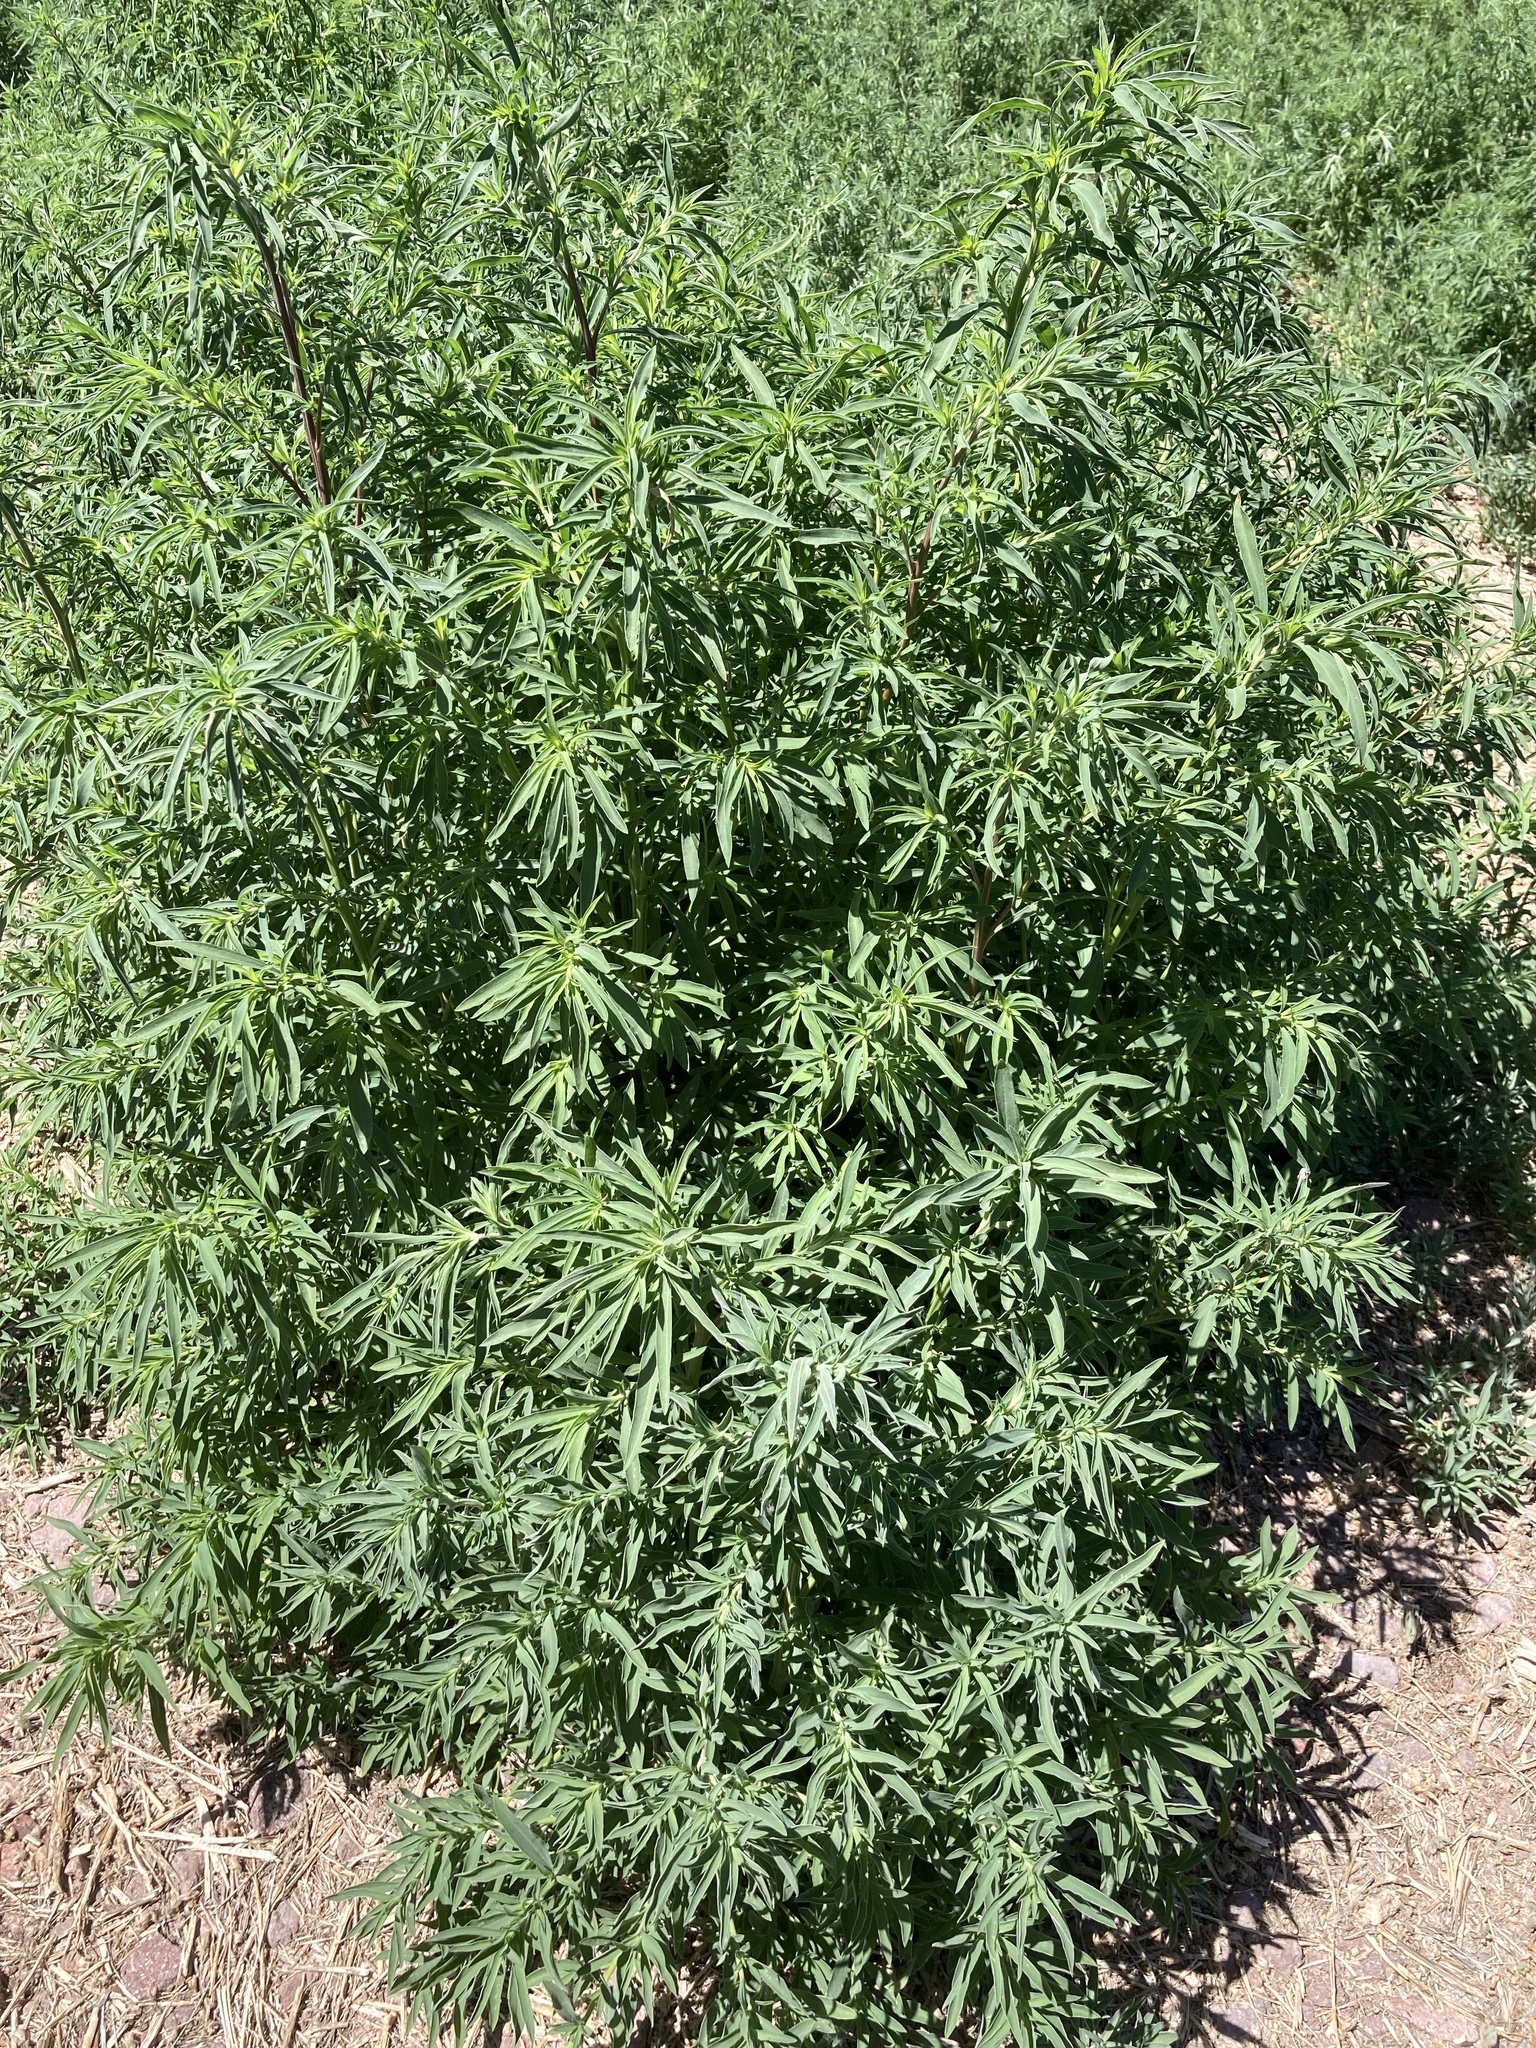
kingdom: Plantae
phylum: Tracheophyta
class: Magnoliopsida
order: Caryophyllales
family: Amaranthaceae
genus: Bassia
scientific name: Bassia scoparia
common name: Belvedere
